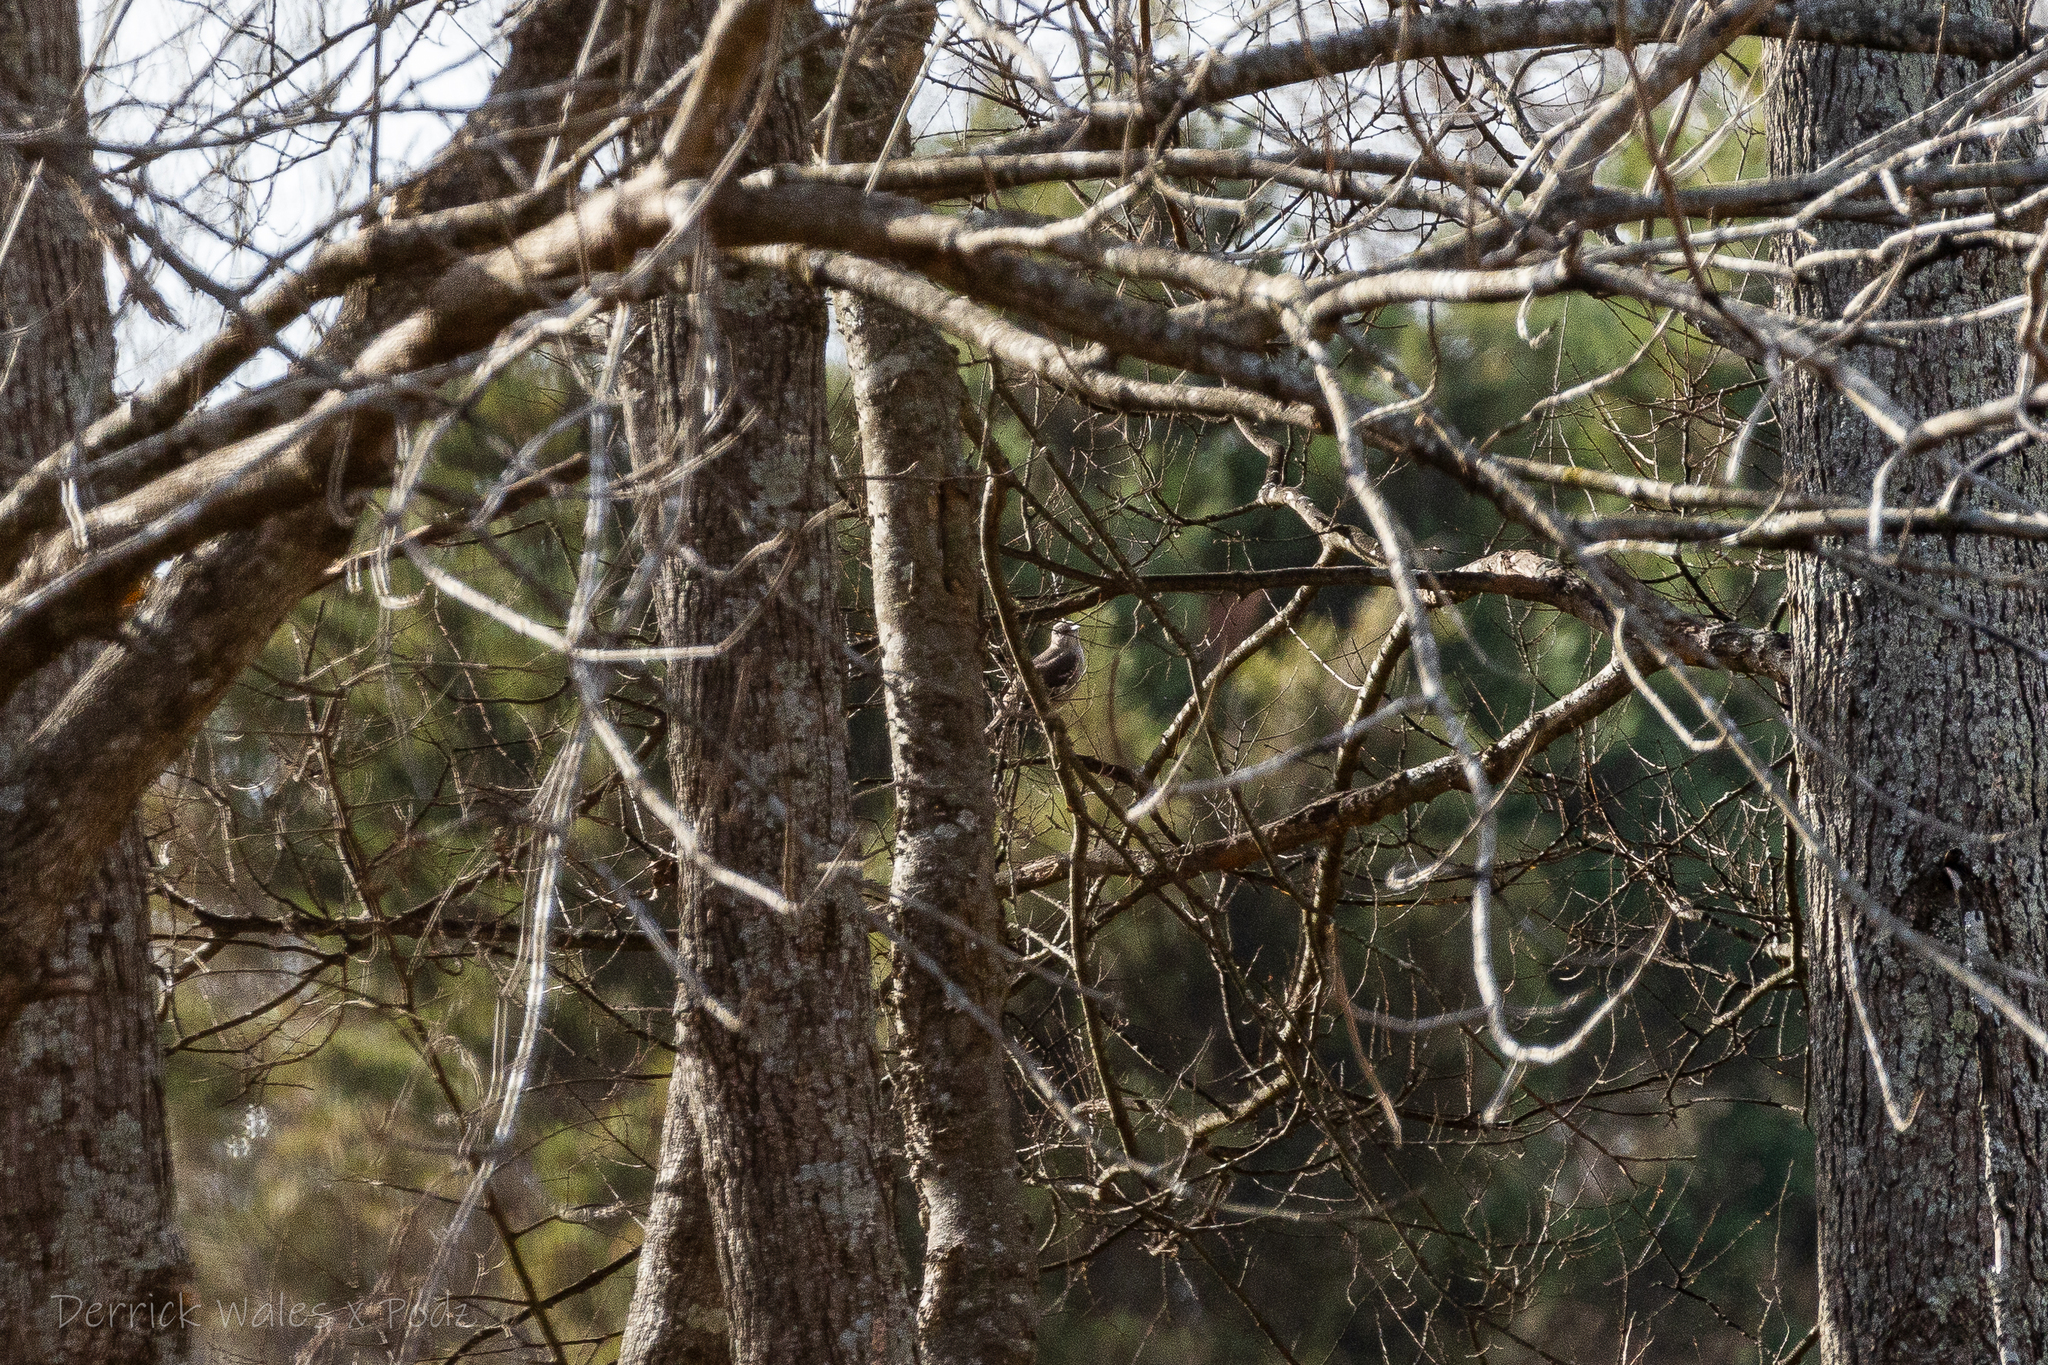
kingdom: Animalia
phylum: Chordata
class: Aves
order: Passeriformes
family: Mimidae
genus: Mimus
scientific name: Mimus polyglottos
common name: Northern mockingbird
